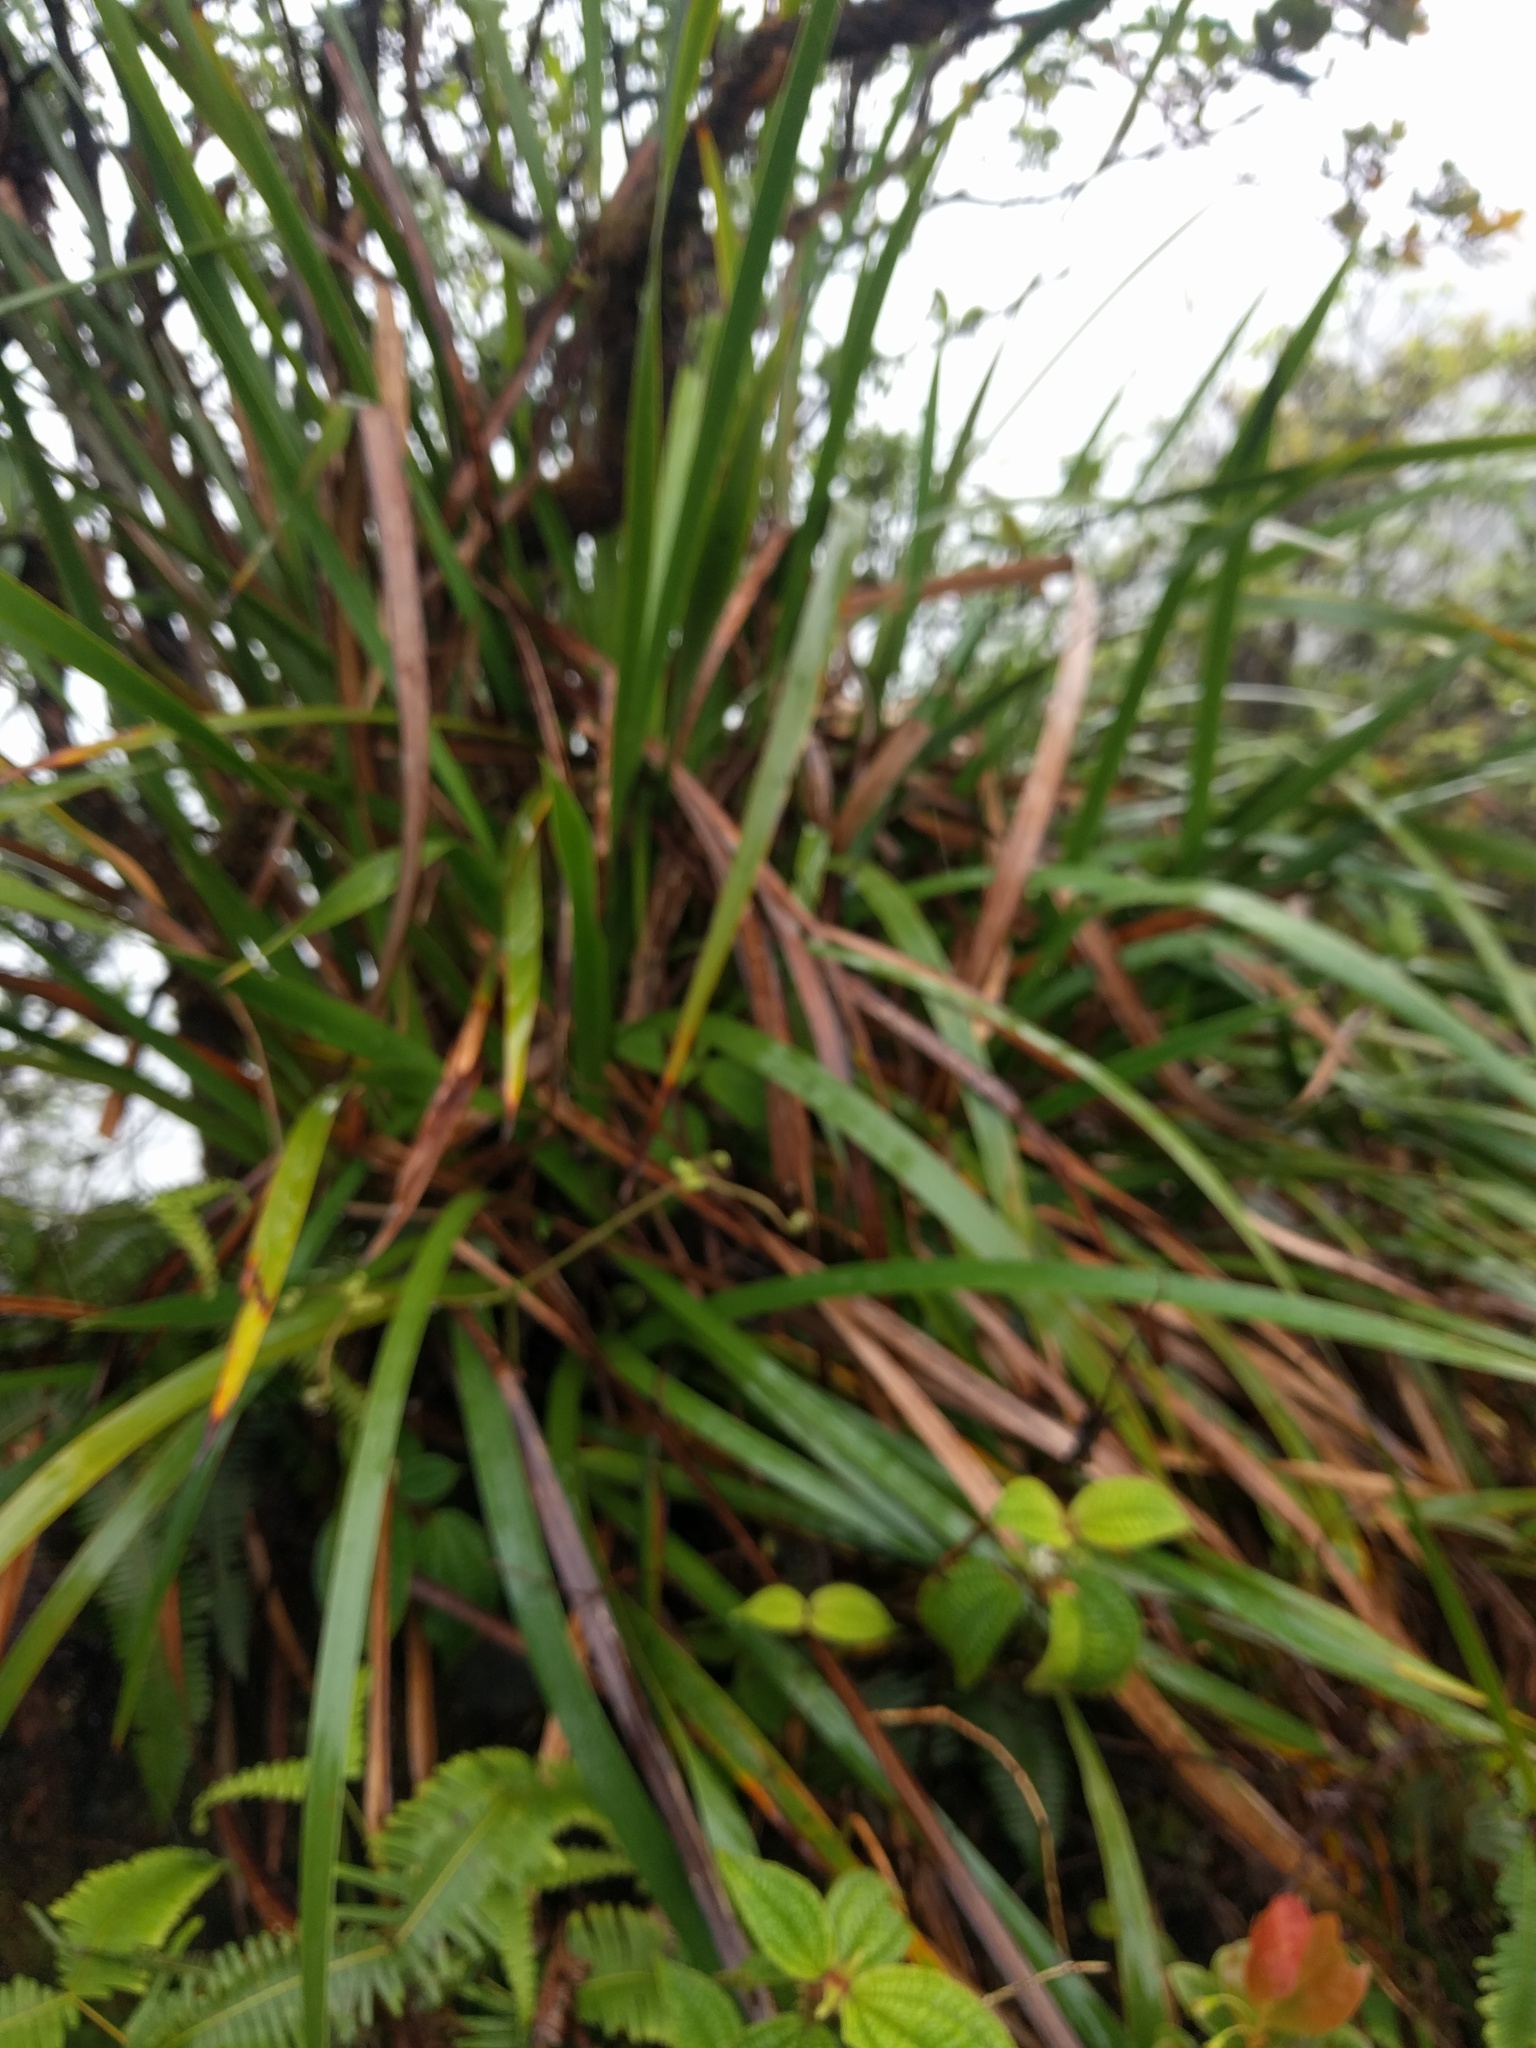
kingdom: Plantae
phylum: Tracheophyta
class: Liliopsida
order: Poales
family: Cyperaceae
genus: Machaerina
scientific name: Machaerina angustifolia
